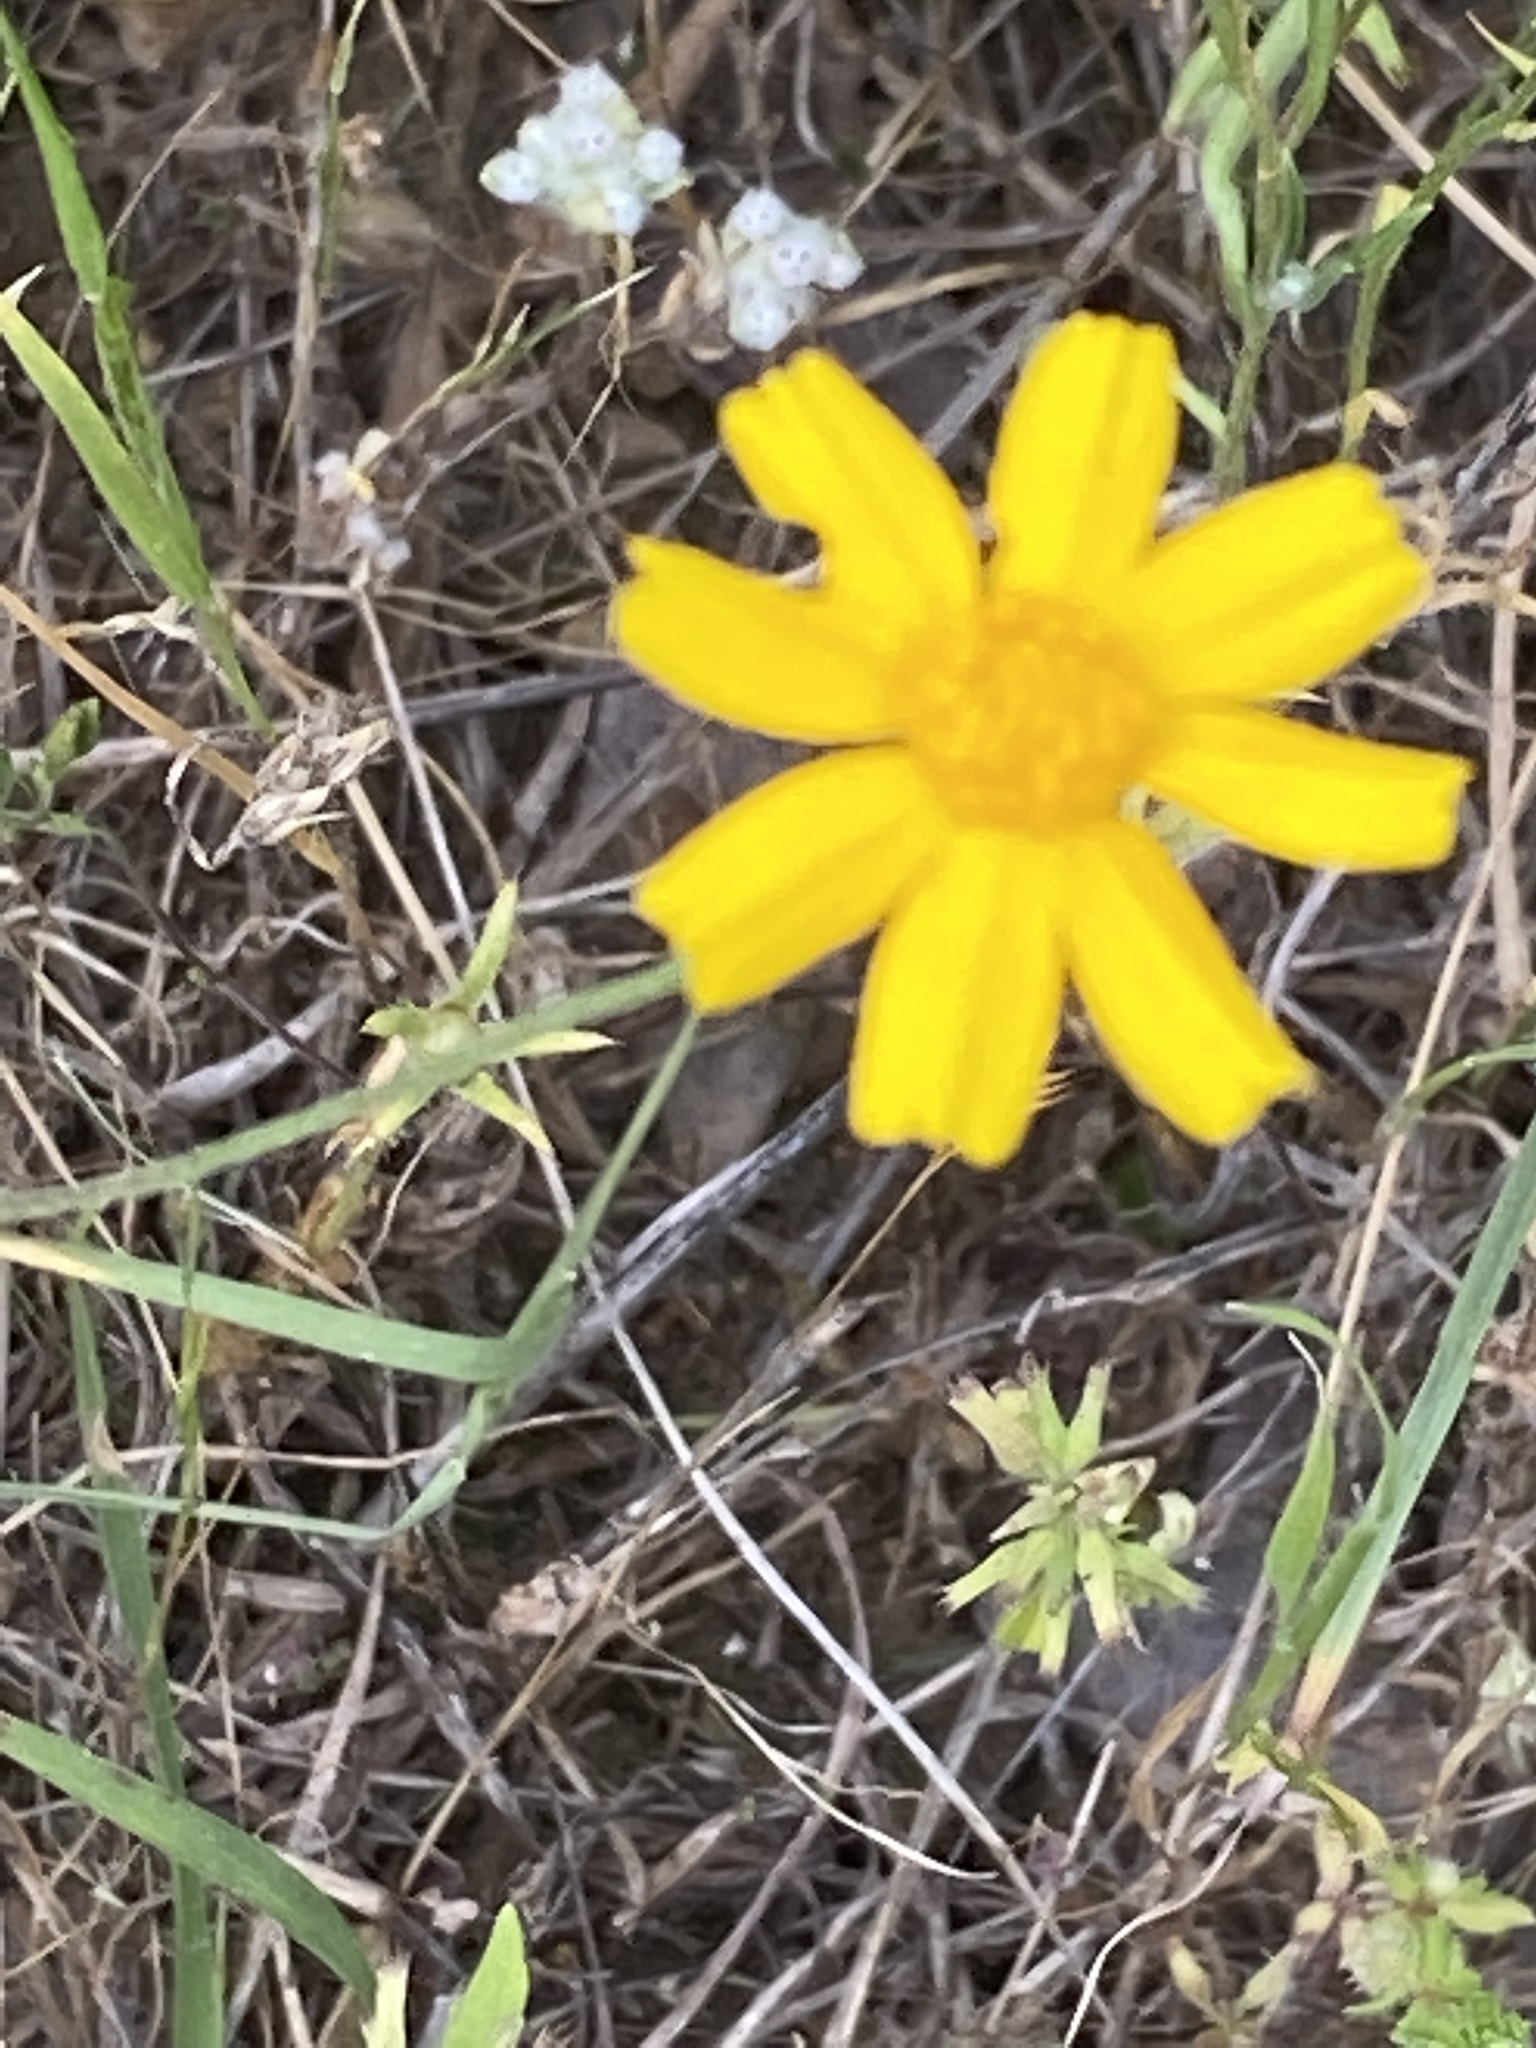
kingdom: Plantae
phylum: Tracheophyta
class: Magnoliopsida
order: Asterales
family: Asteraceae
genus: Tetraneuris
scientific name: Tetraneuris linearifolia
